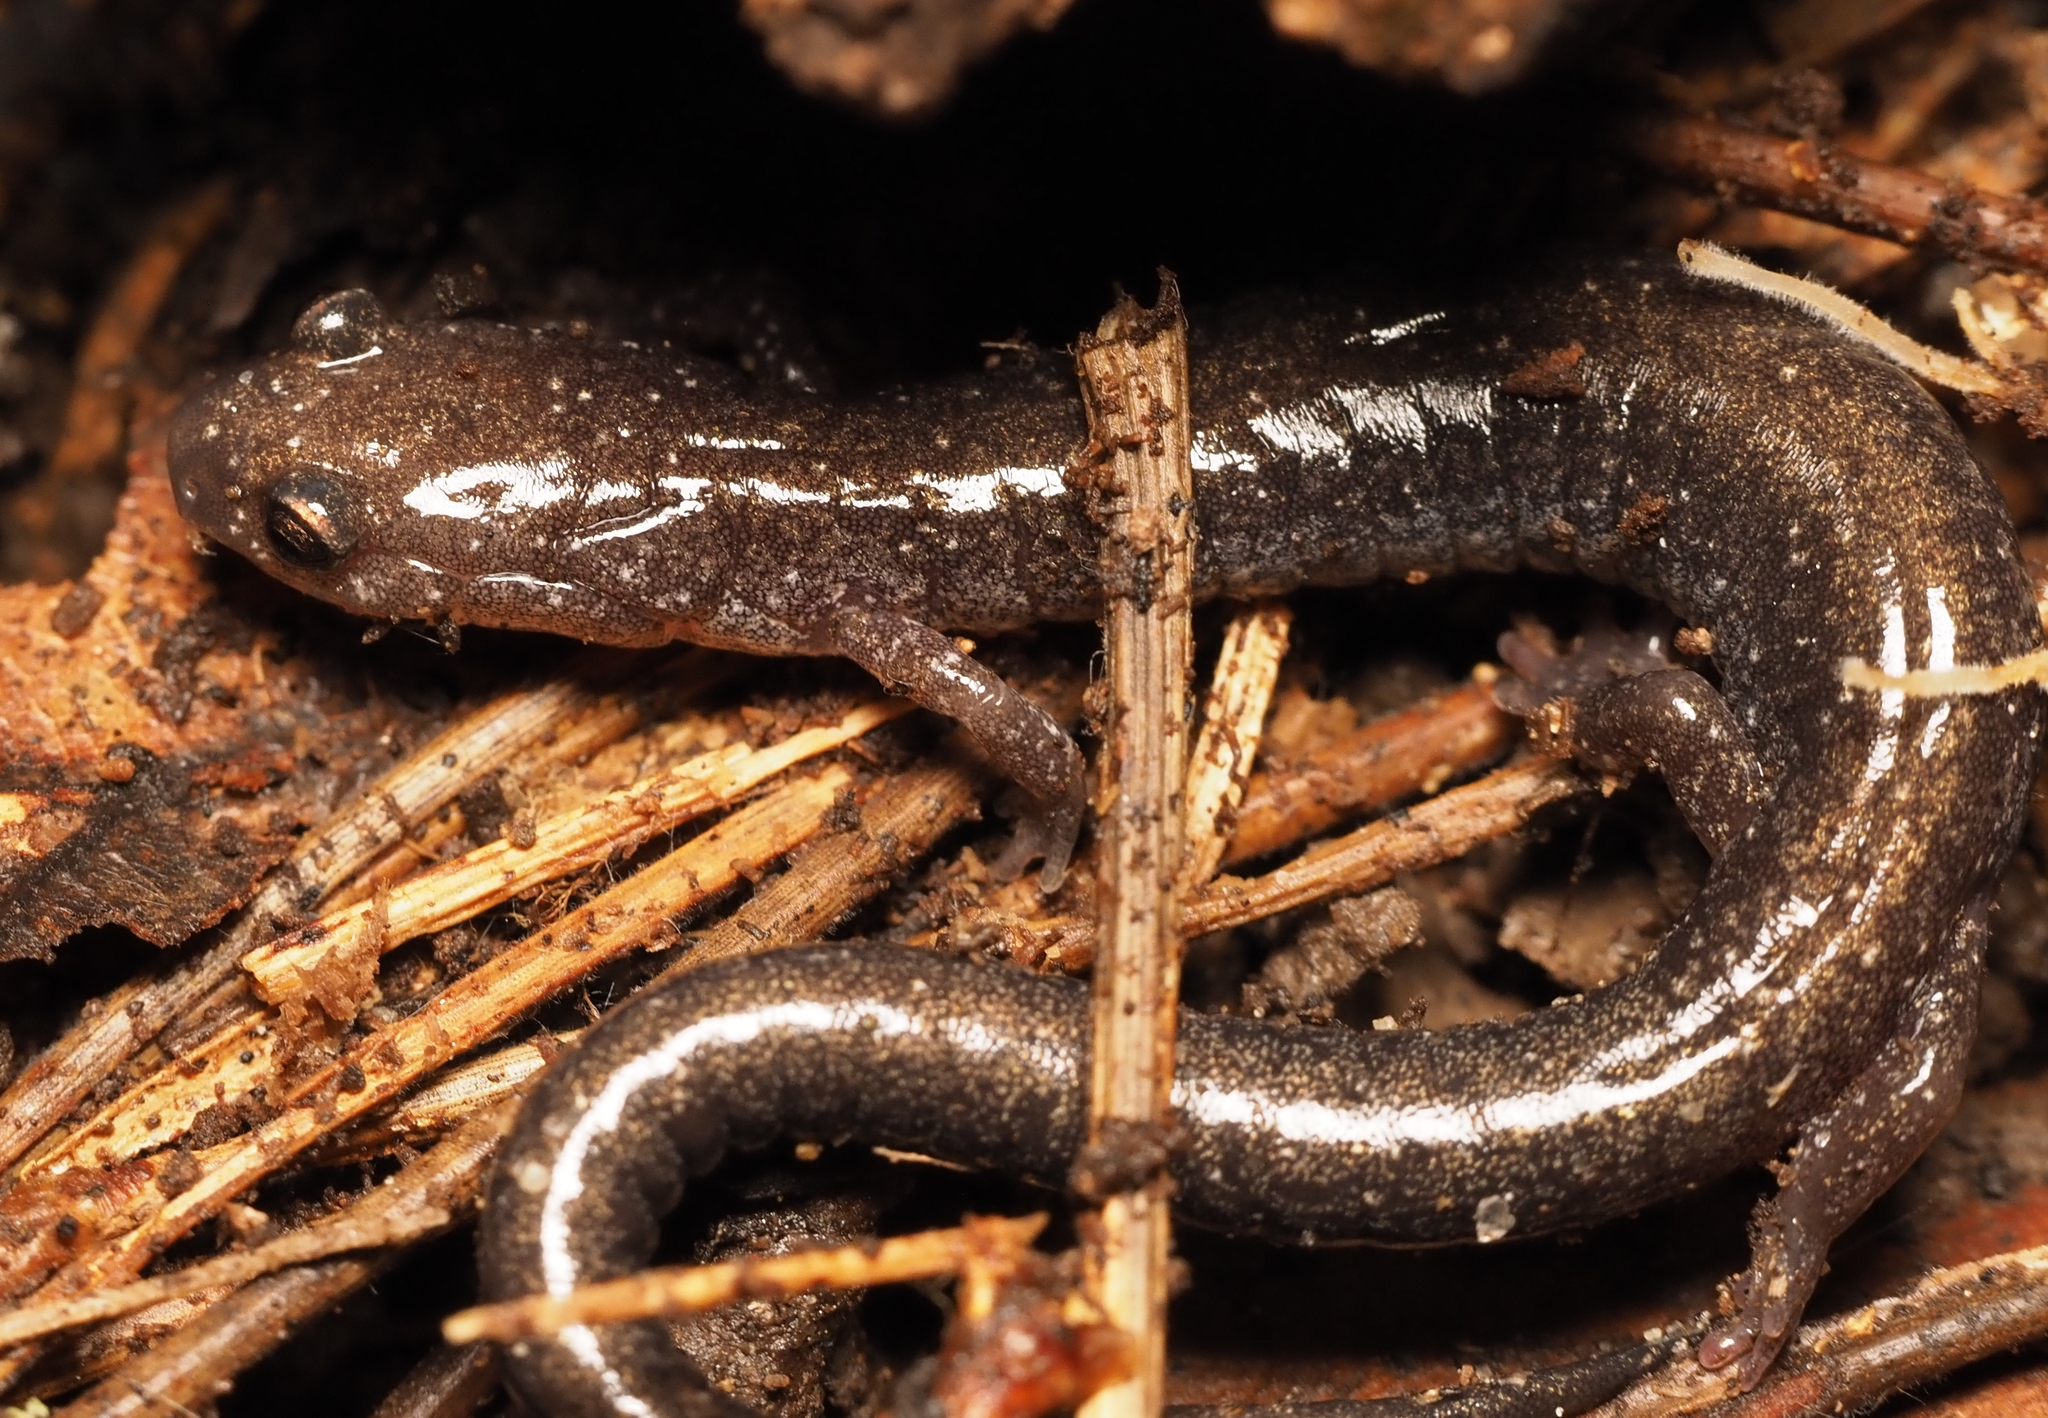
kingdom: Animalia
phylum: Chordata
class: Amphibia
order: Caudata
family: Plethodontidae
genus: Plethodon
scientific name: Plethodon cinereus
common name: Redback salamander
